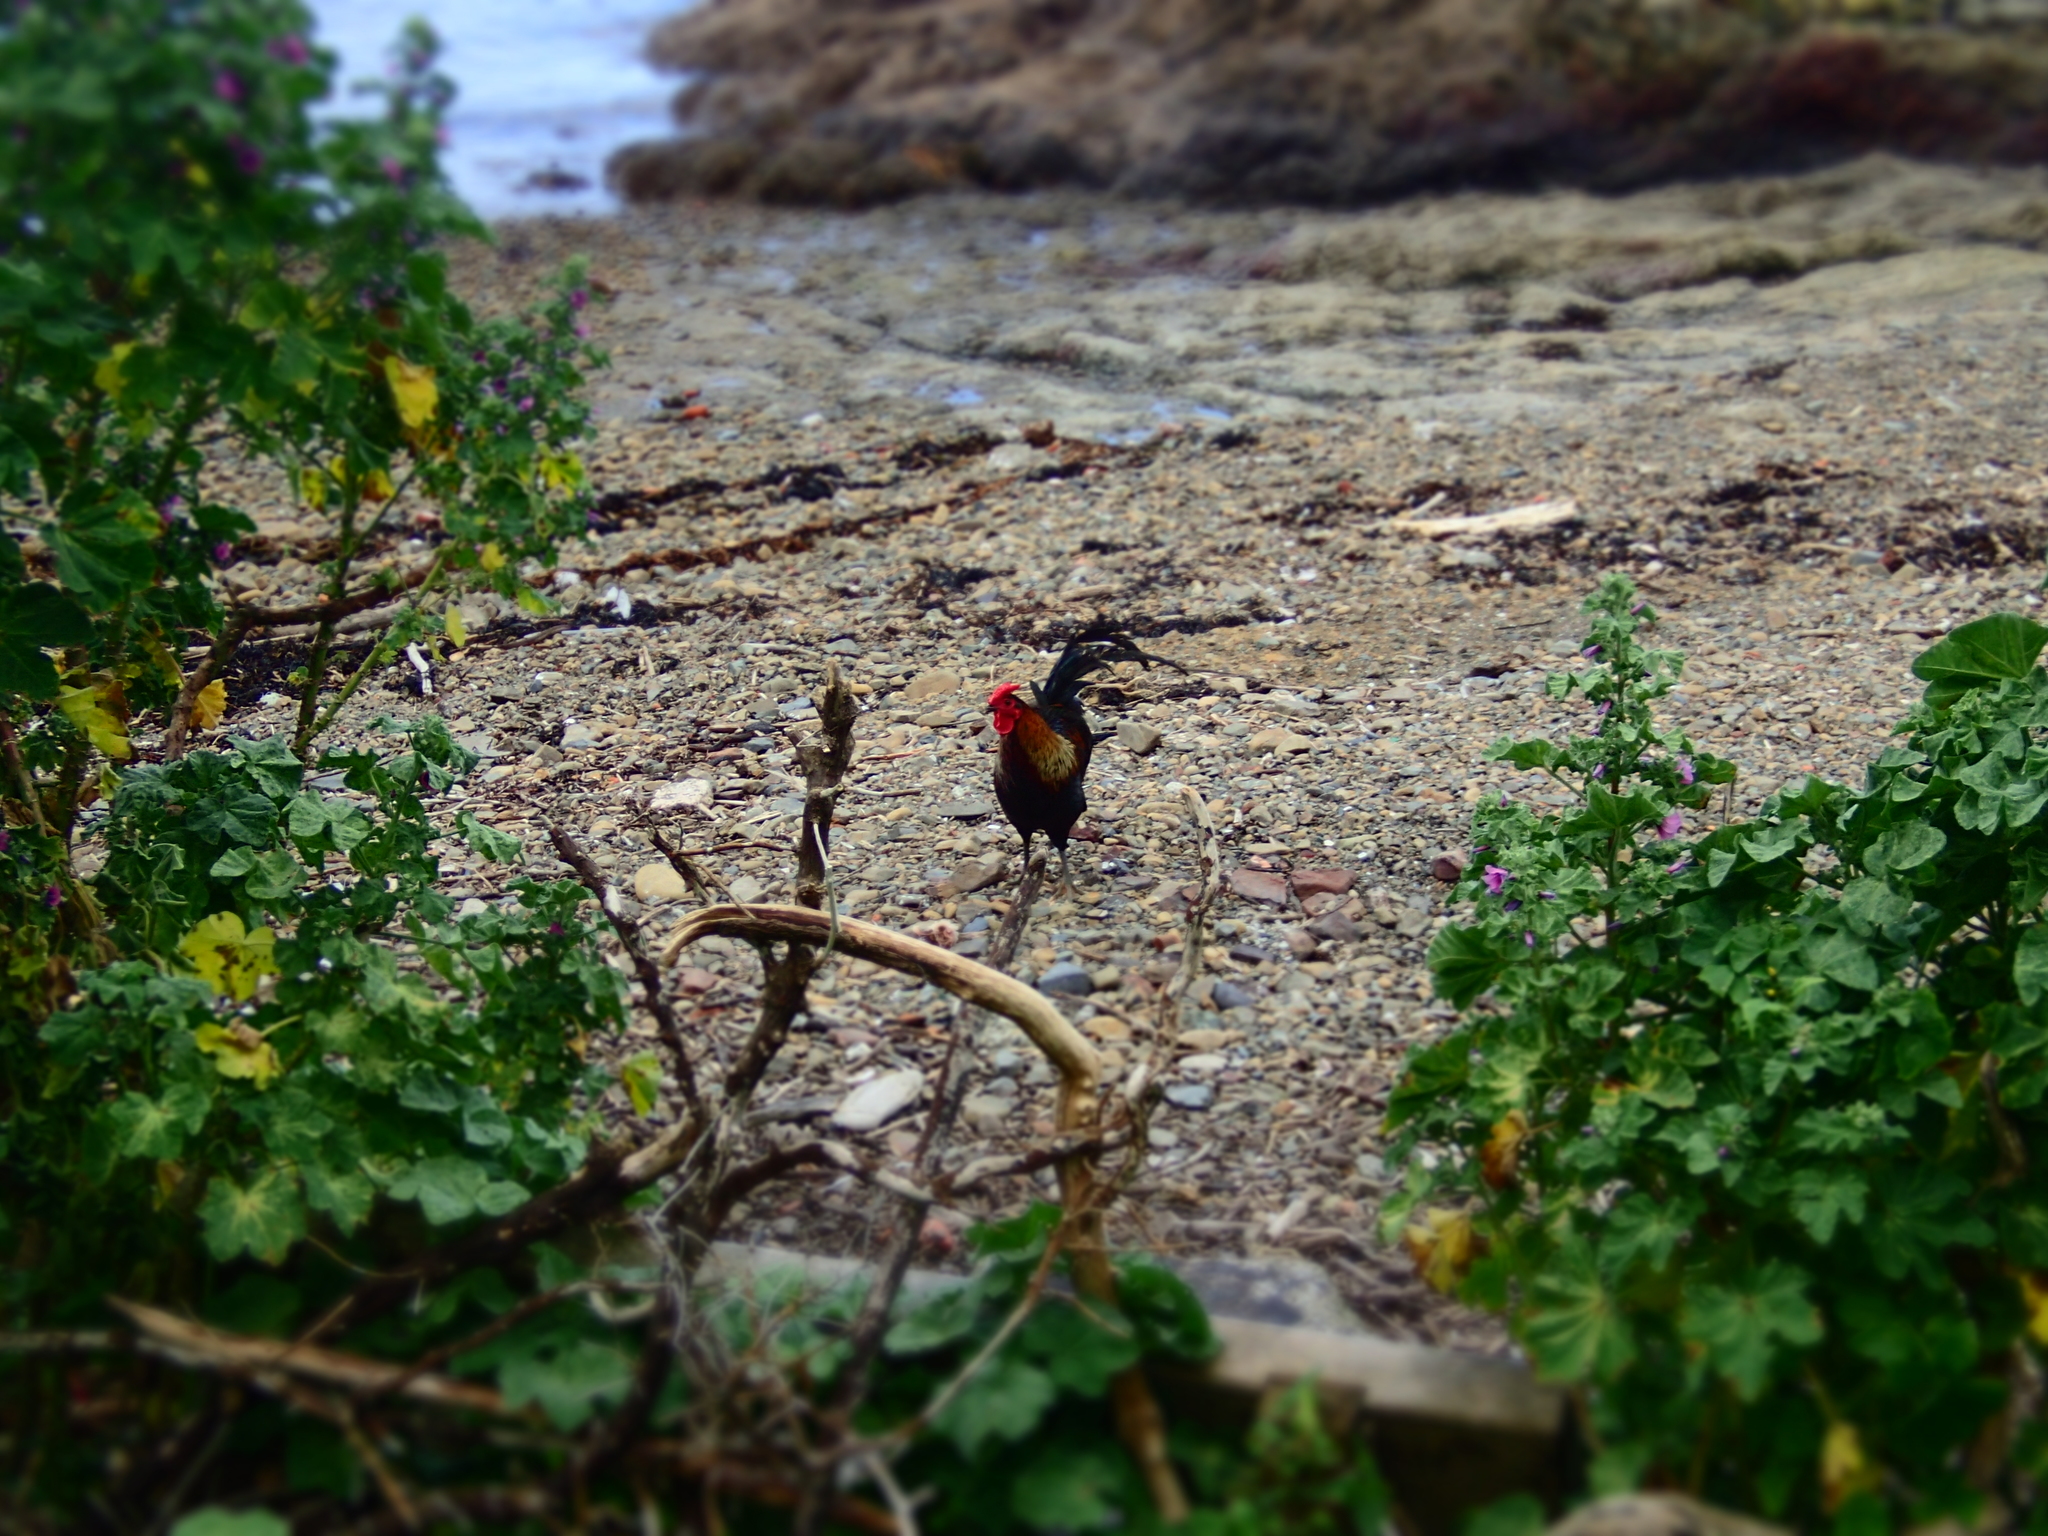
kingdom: Animalia
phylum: Chordata
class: Aves
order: Galliformes
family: Phasianidae
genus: Gallus
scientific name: Gallus gallus
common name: Red junglefowl
